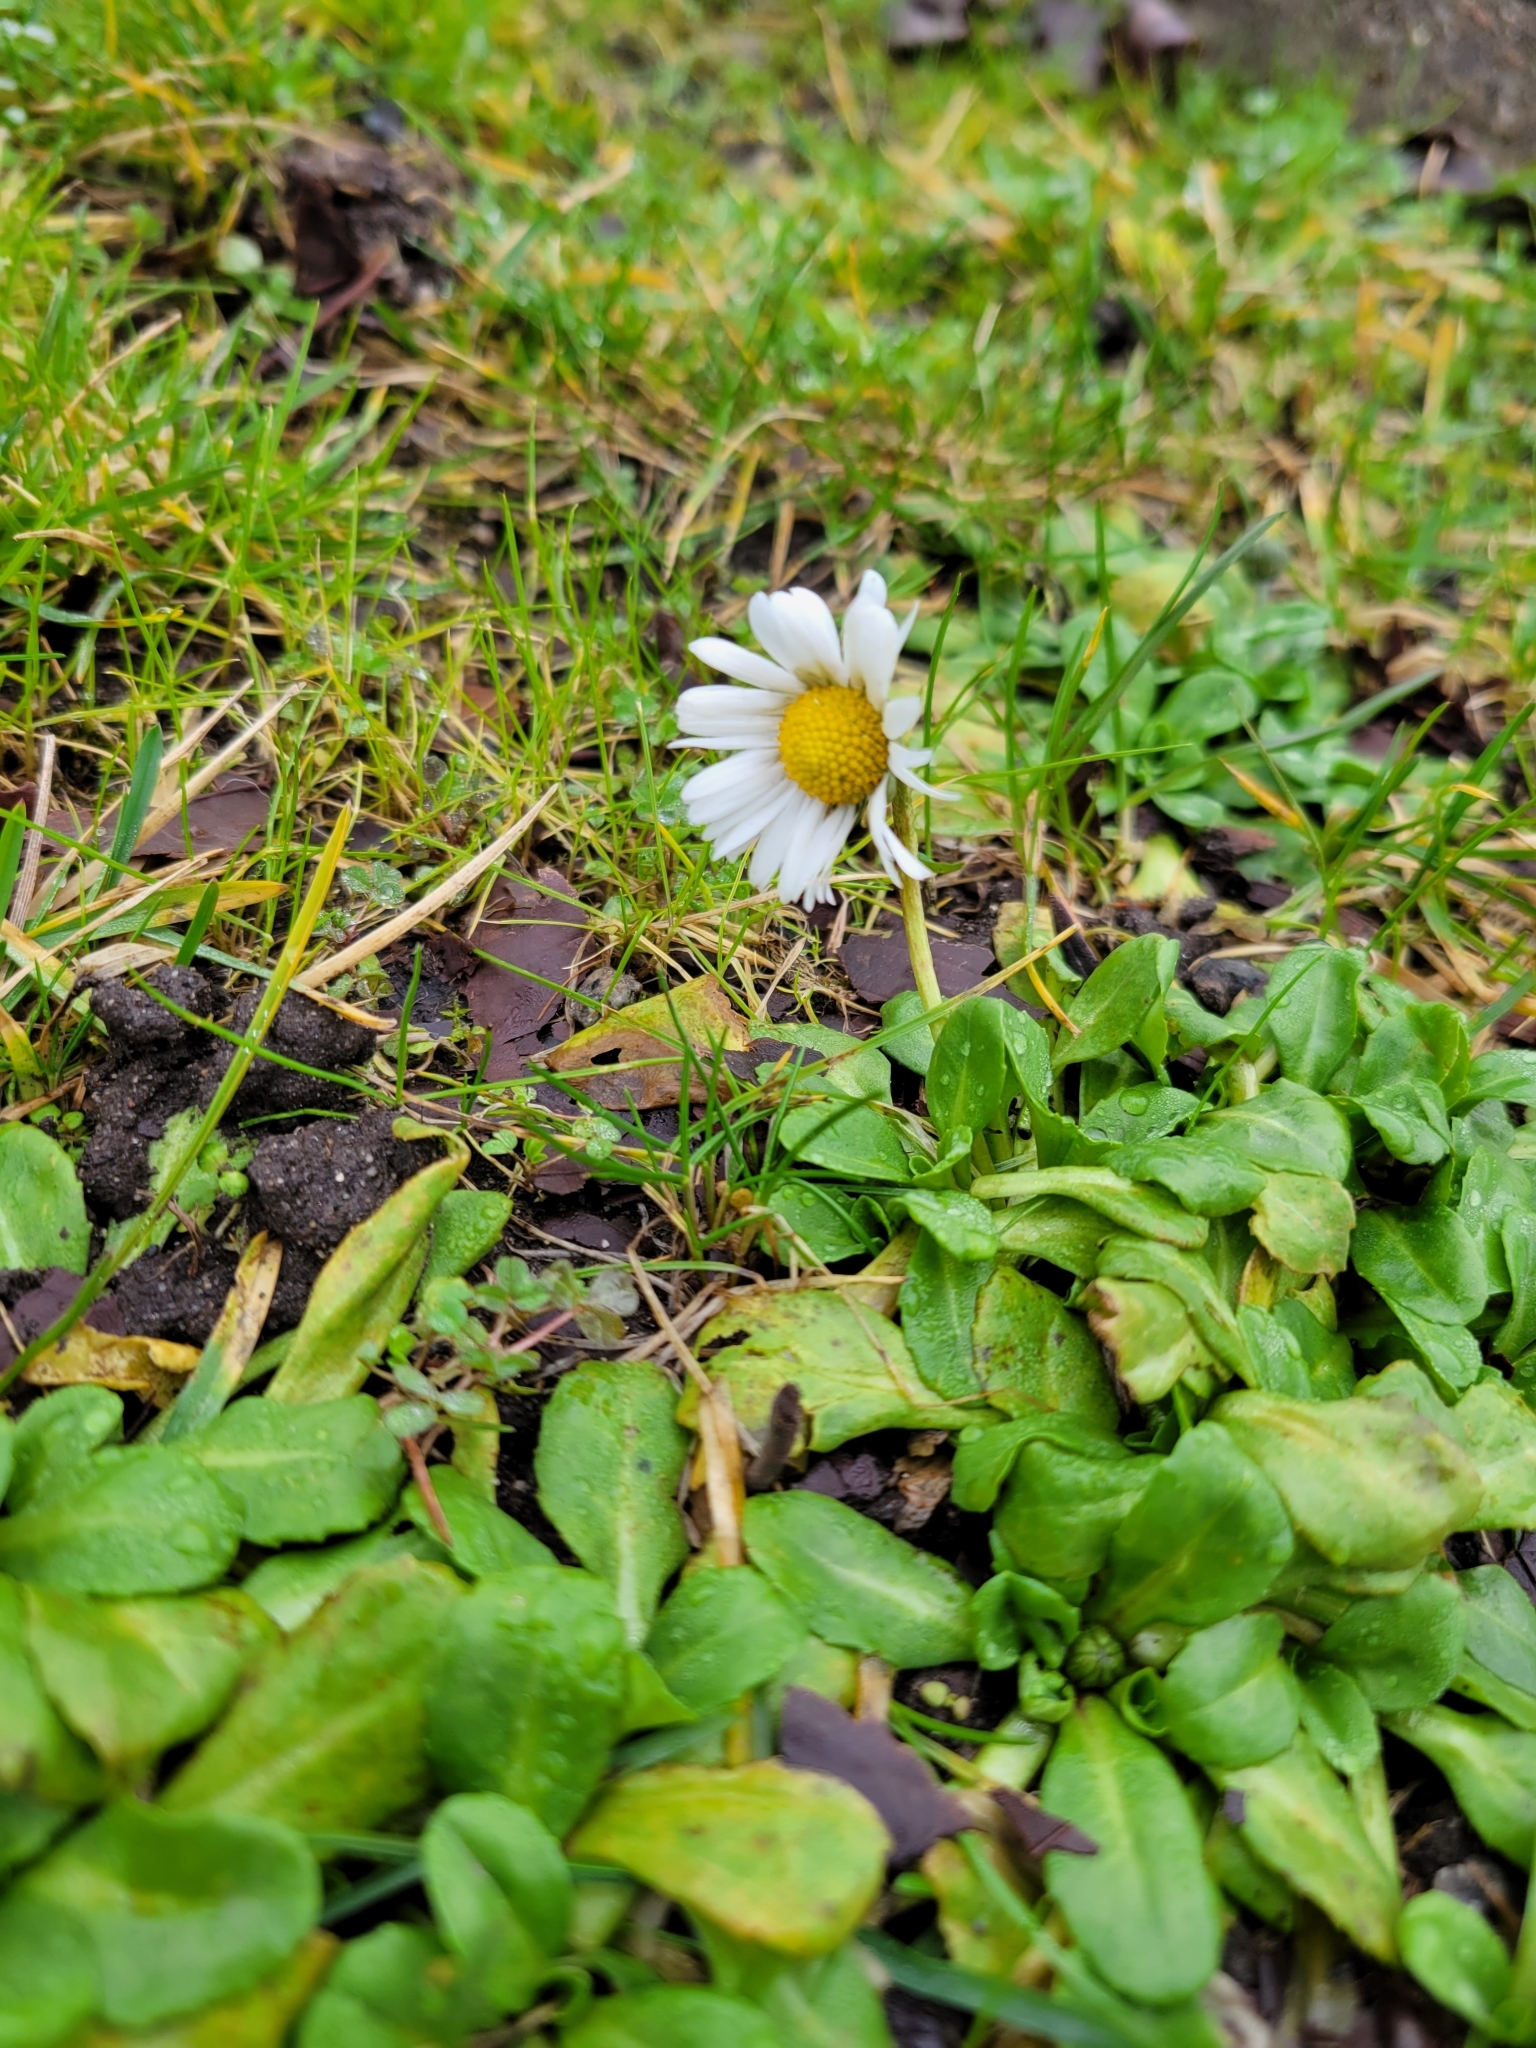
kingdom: Plantae
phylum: Tracheophyta
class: Magnoliopsida
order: Asterales
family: Asteraceae
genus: Bellis
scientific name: Bellis perennis
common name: Lawndaisy
